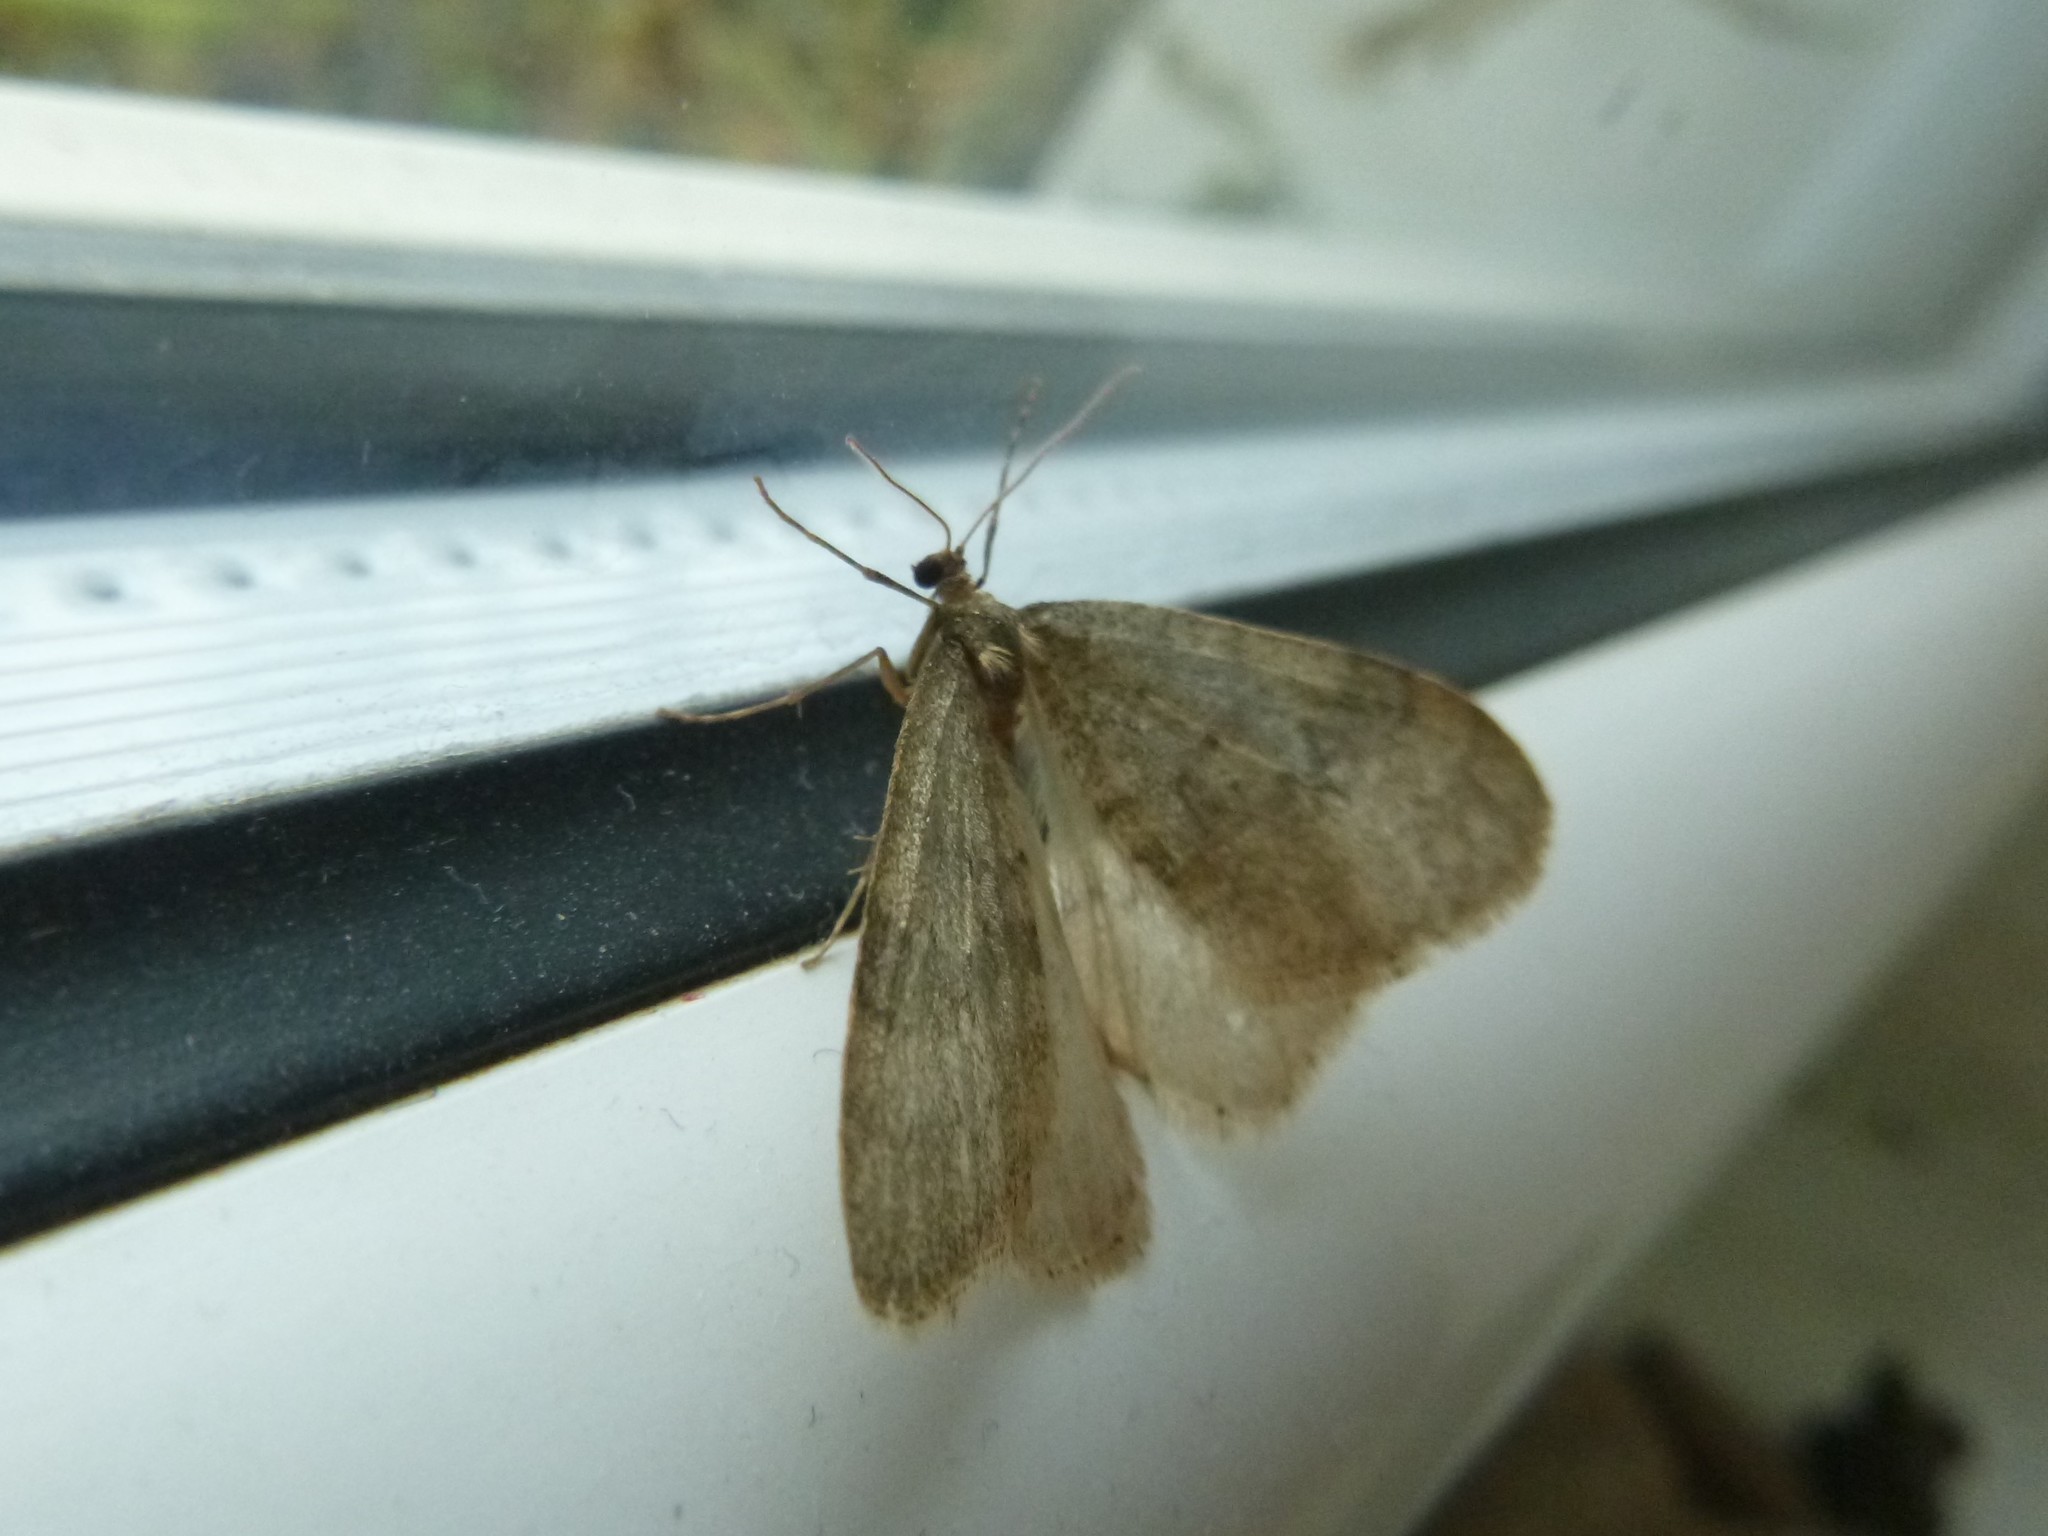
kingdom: Animalia
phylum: Arthropoda
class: Insecta
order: Lepidoptera
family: Geometridae
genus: Operophtera
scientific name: Operophtera brumata
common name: Winter moth
